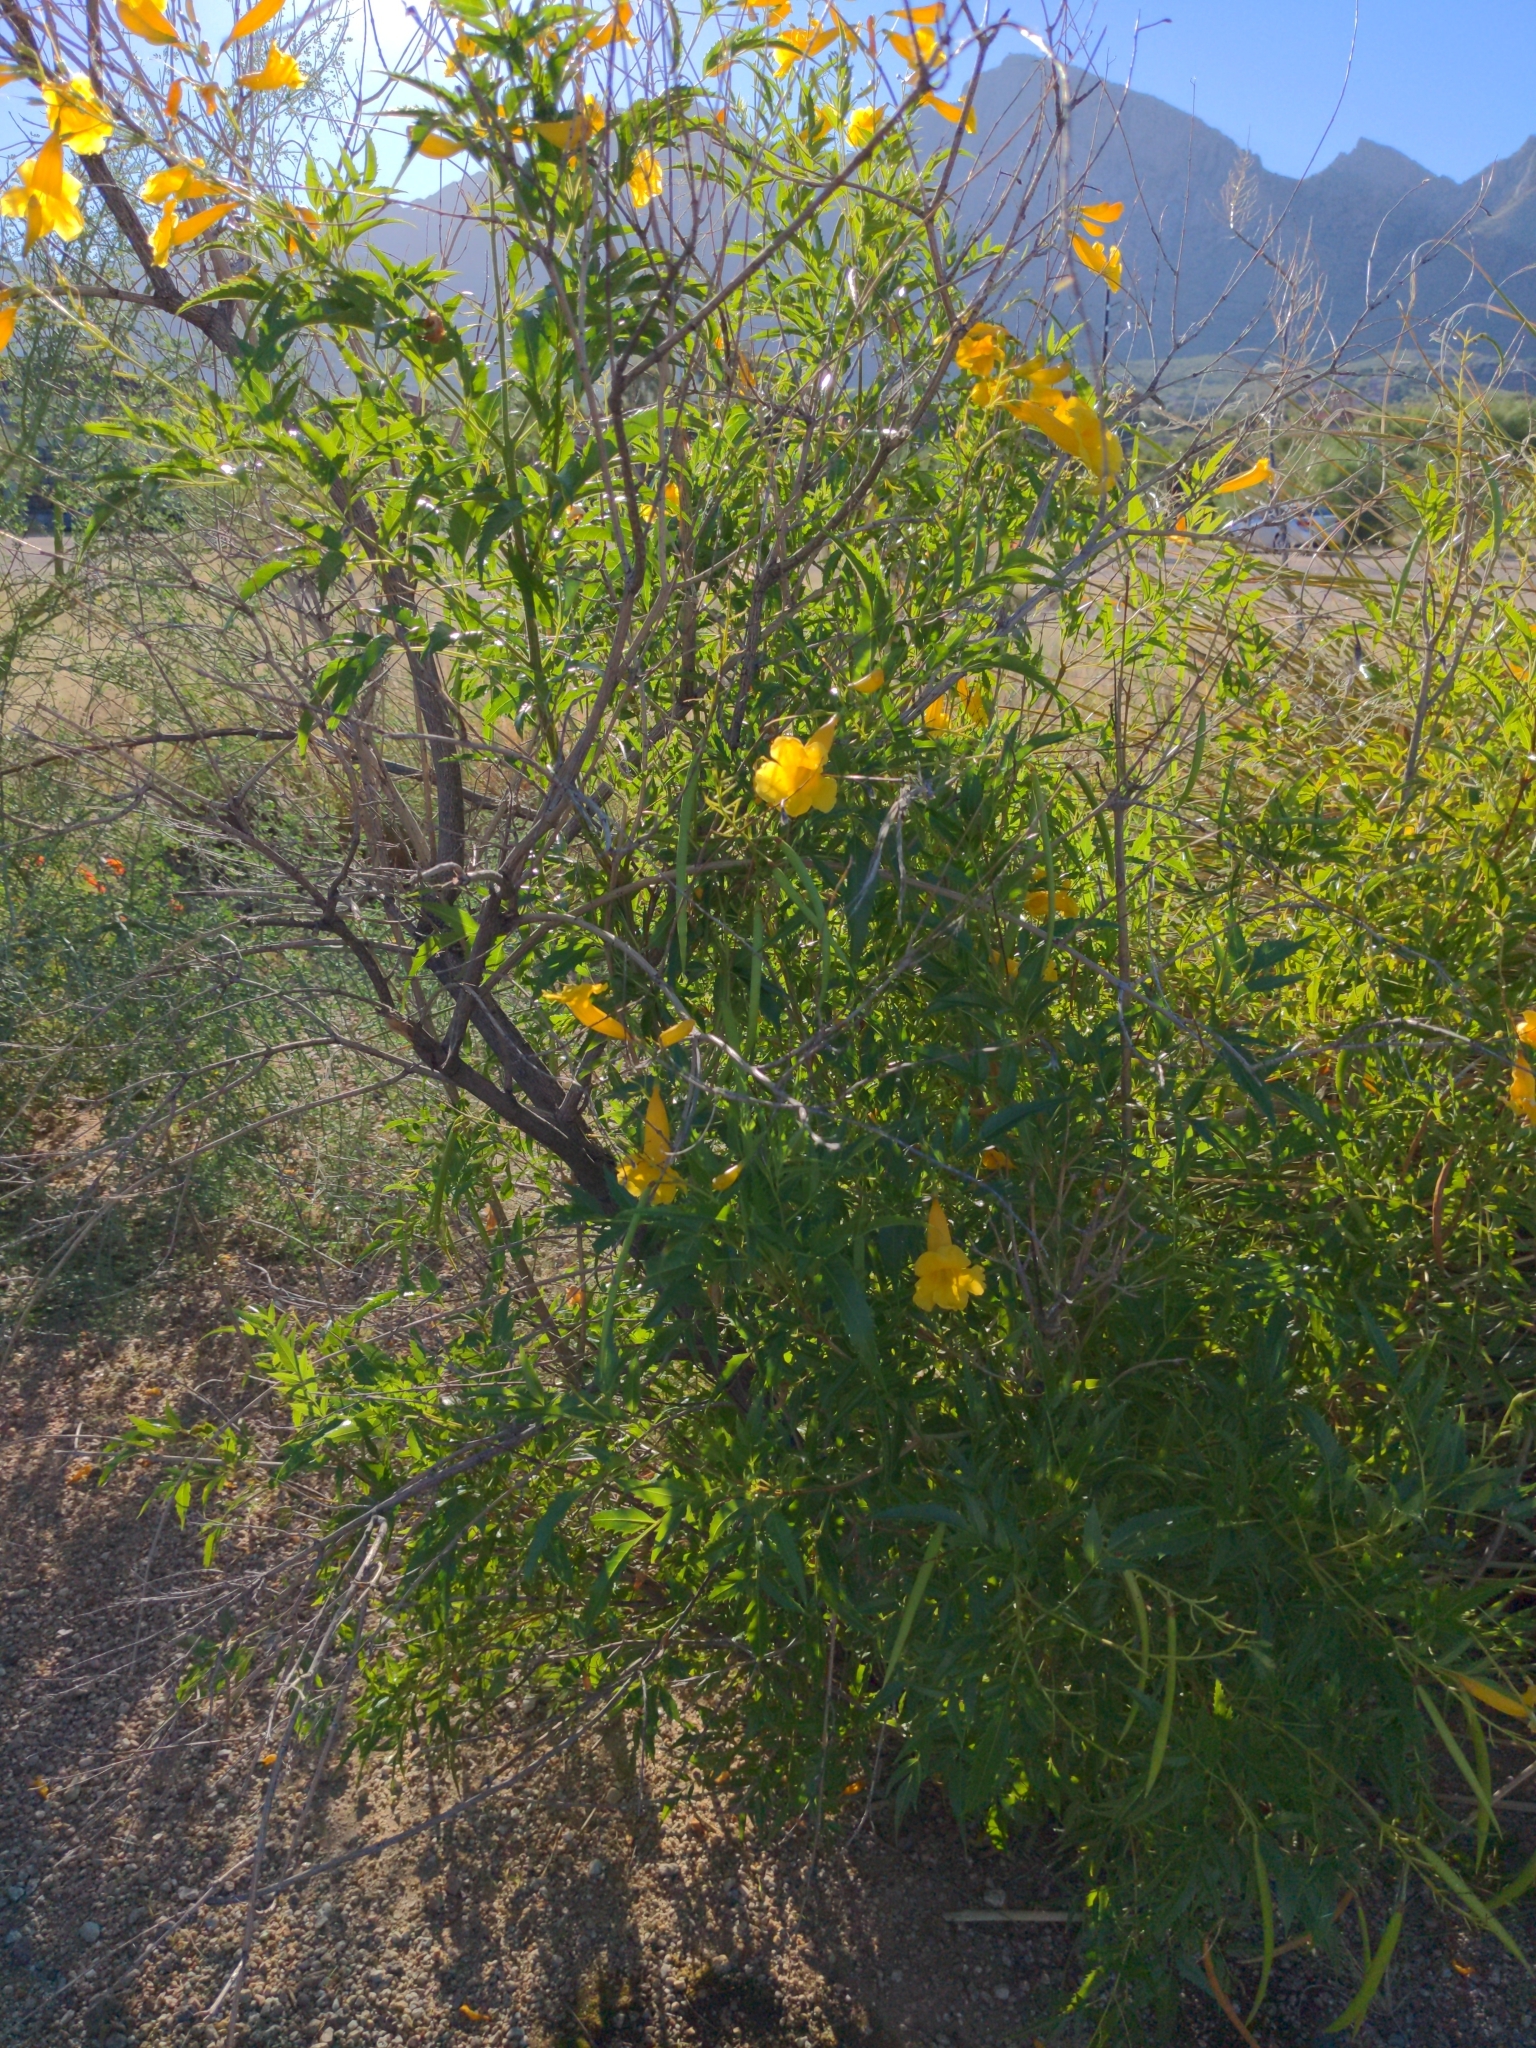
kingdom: Plantae
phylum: Tracheophyta
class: Magnoliopsida
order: Lamiales
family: Bignoniaceae
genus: Tecoma
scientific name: Tecoma stans
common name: Yellow trumpetbush
